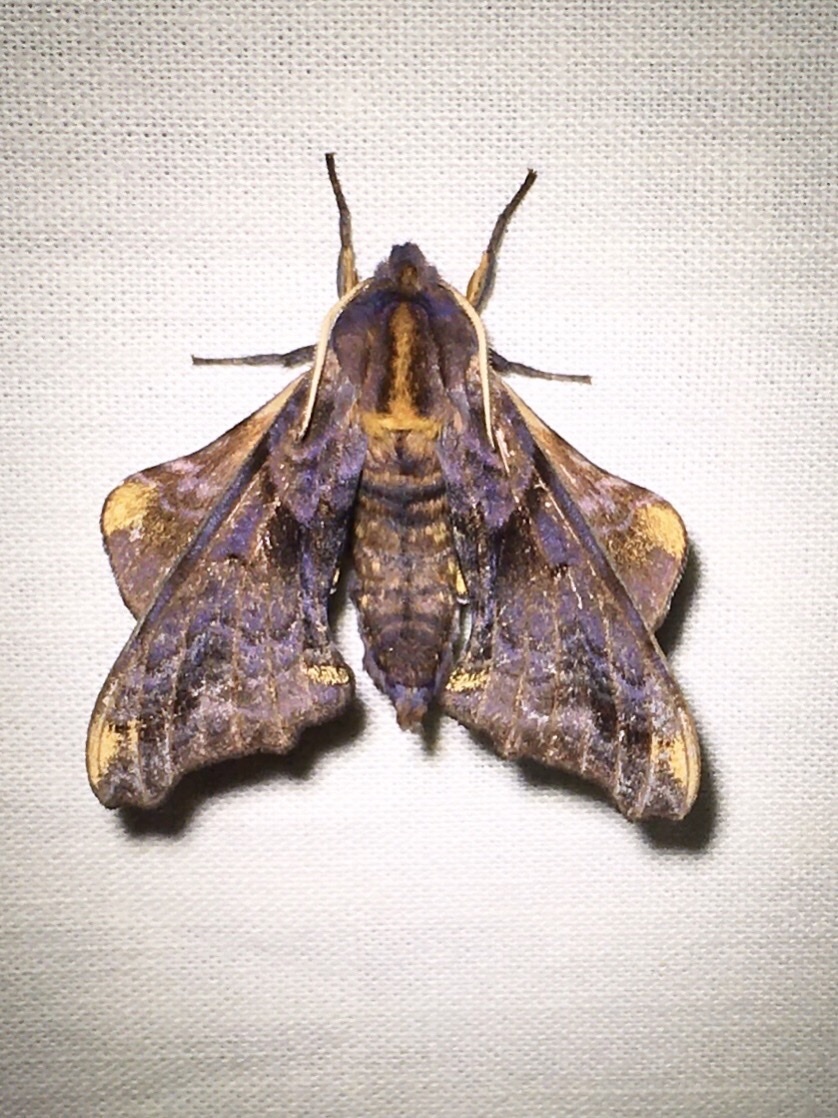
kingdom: Animalia
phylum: Arthropoda
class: Insecta
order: Lepidoptera
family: Sphingidae
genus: Paonias
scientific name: Paonias myops
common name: Small-eyed sphinx
